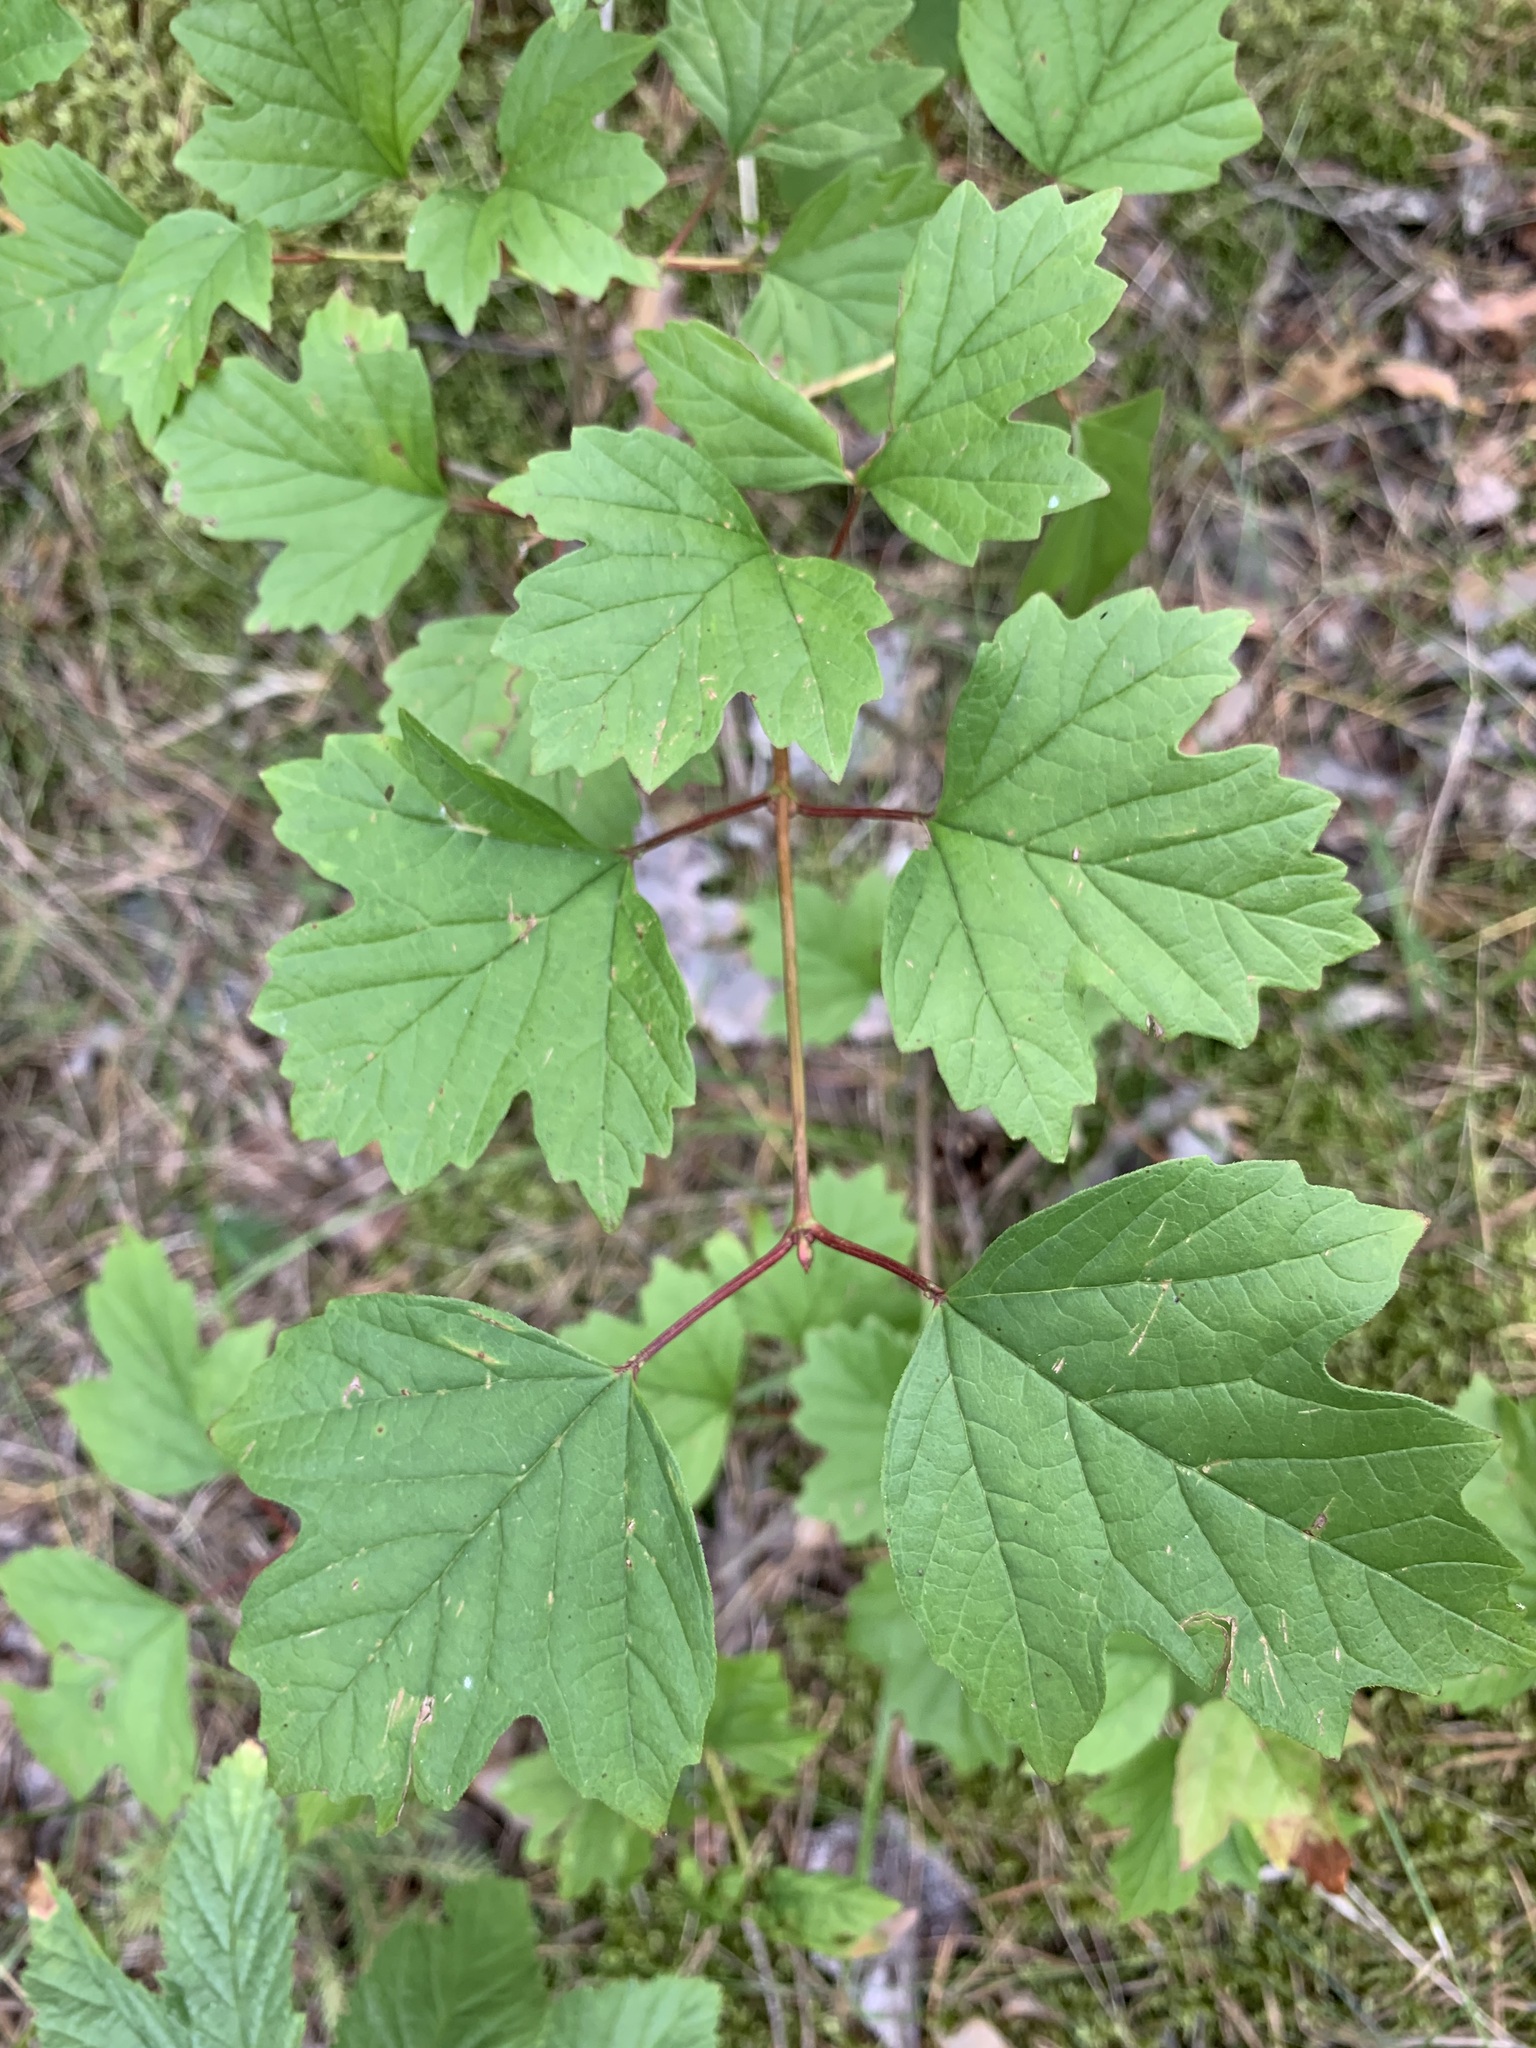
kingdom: Plantae
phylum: Tracheophyta
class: Magnoliopsida
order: Dipsacales
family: Viburnaceae
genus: Viburnum
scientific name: Viburnum opulus
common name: Guelder-rose
